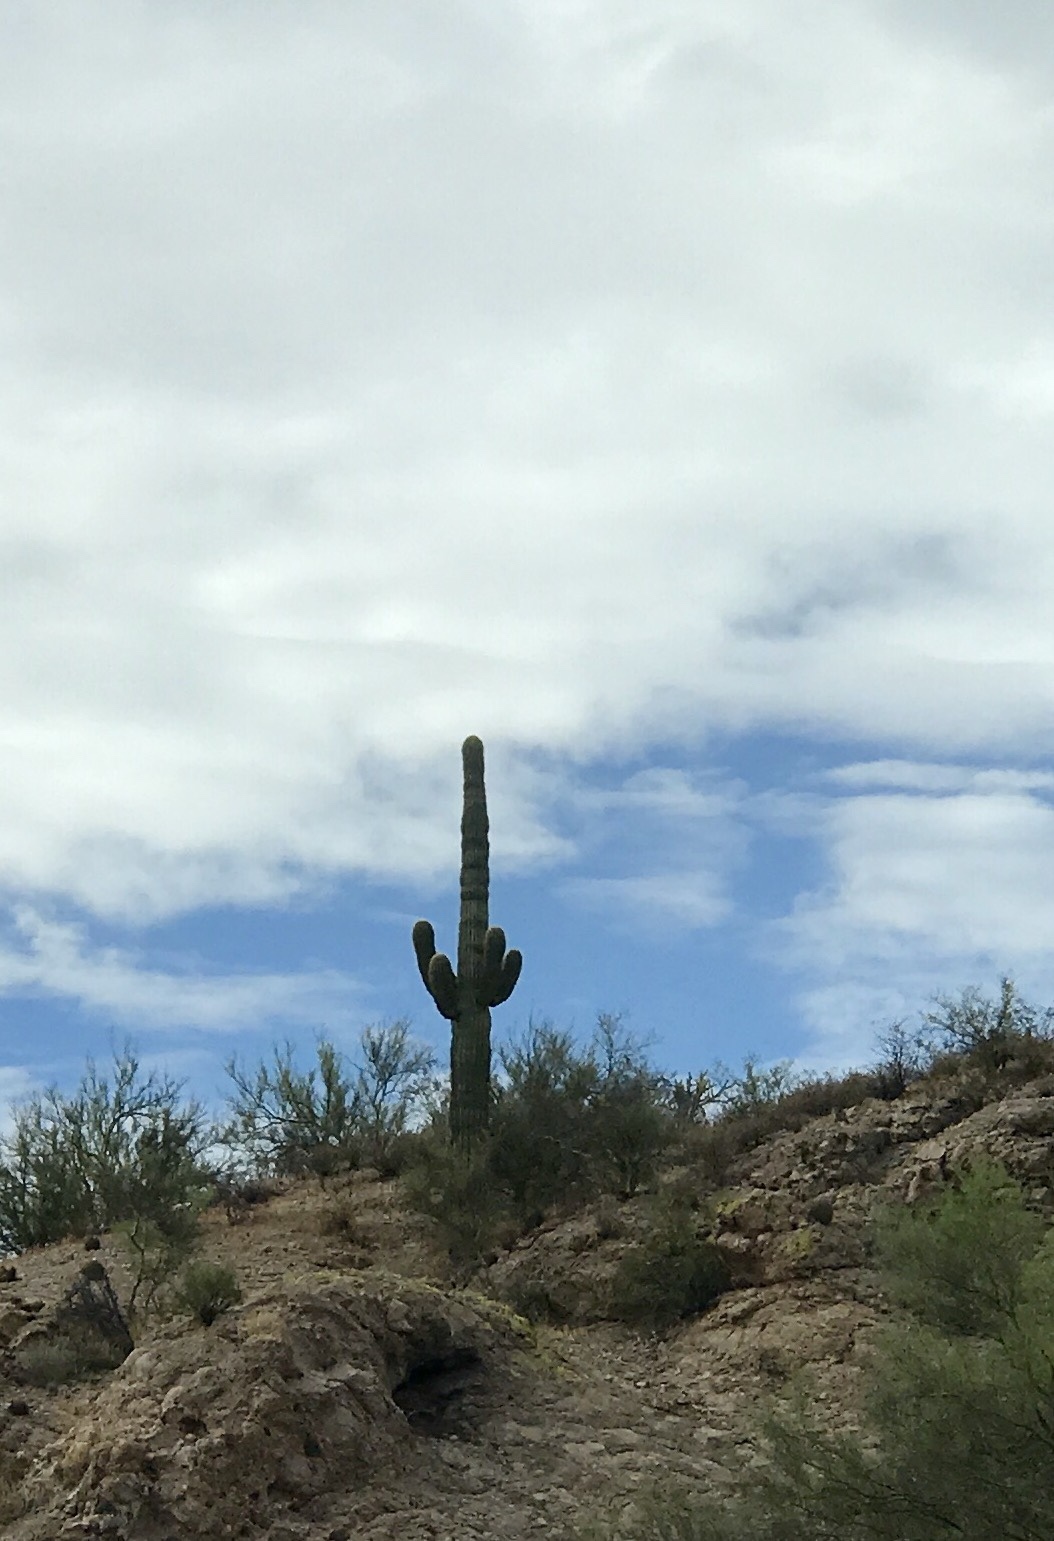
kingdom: Plantae
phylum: Tracheophyta
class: Magnoliopsida
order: Caryophyllales
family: Cactaceae
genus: Carnegiea
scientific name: Carnegiea gigantea
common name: Saguaro
